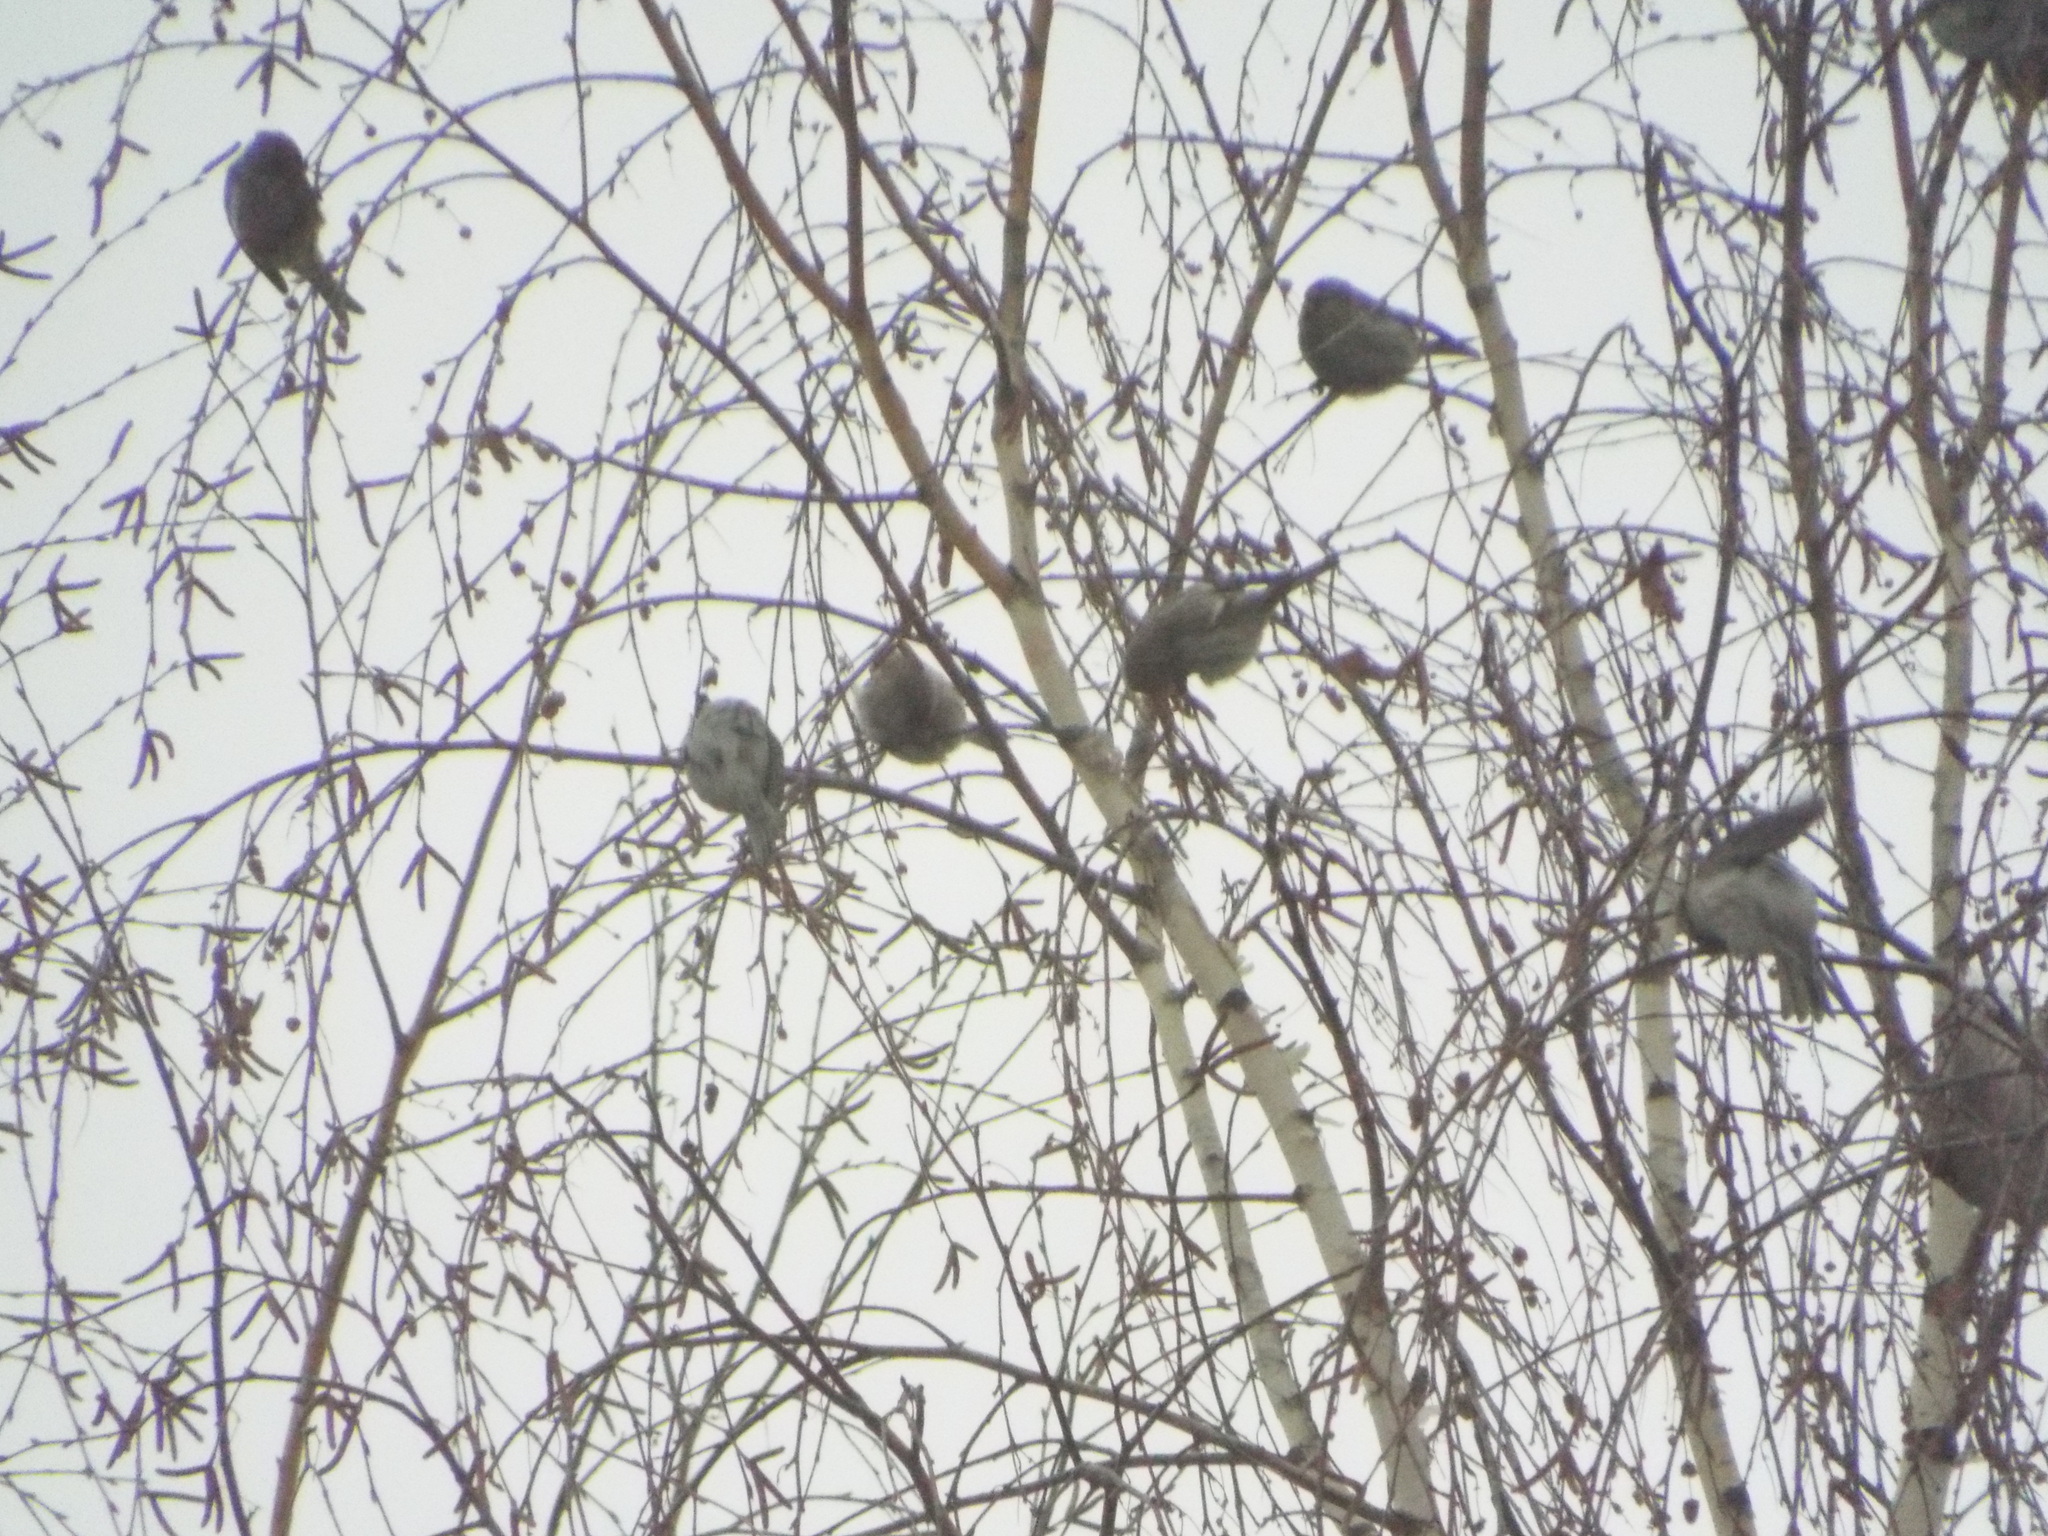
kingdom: Animalia
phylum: Chordata
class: Aves
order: Passeriformes
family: Fringillidae
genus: Acanthis
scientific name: Acanthis flammea
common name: Common redpoll
